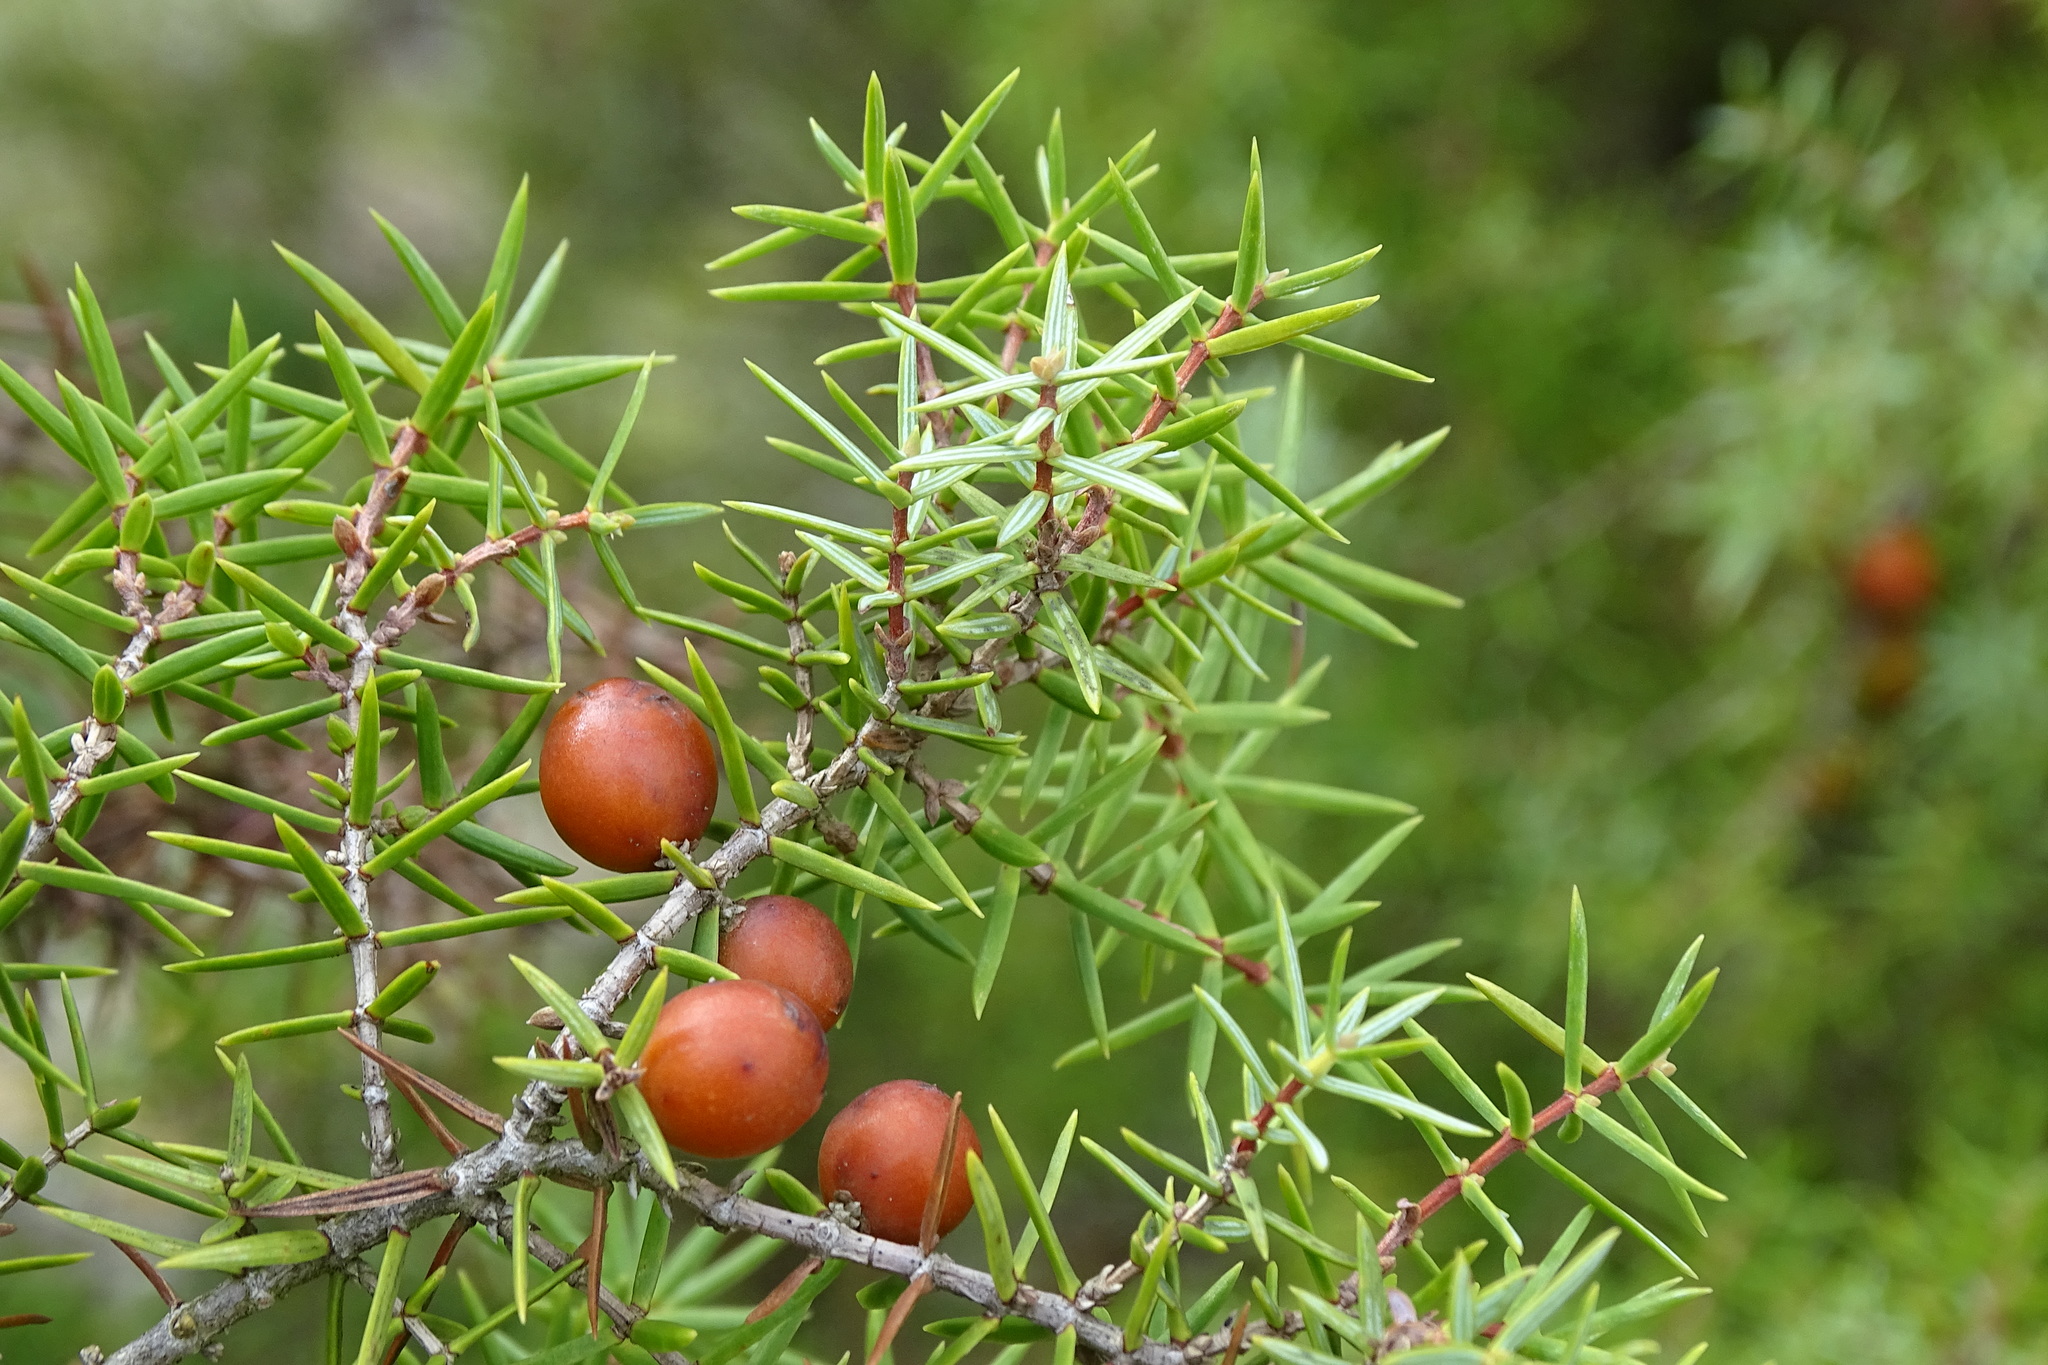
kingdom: Plantae
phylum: Tracheophyta
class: Pinopsida
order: Pinales
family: Cupressaceae
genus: Juniperus
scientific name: Juniperus oxycedrus
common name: Prickly juniper
